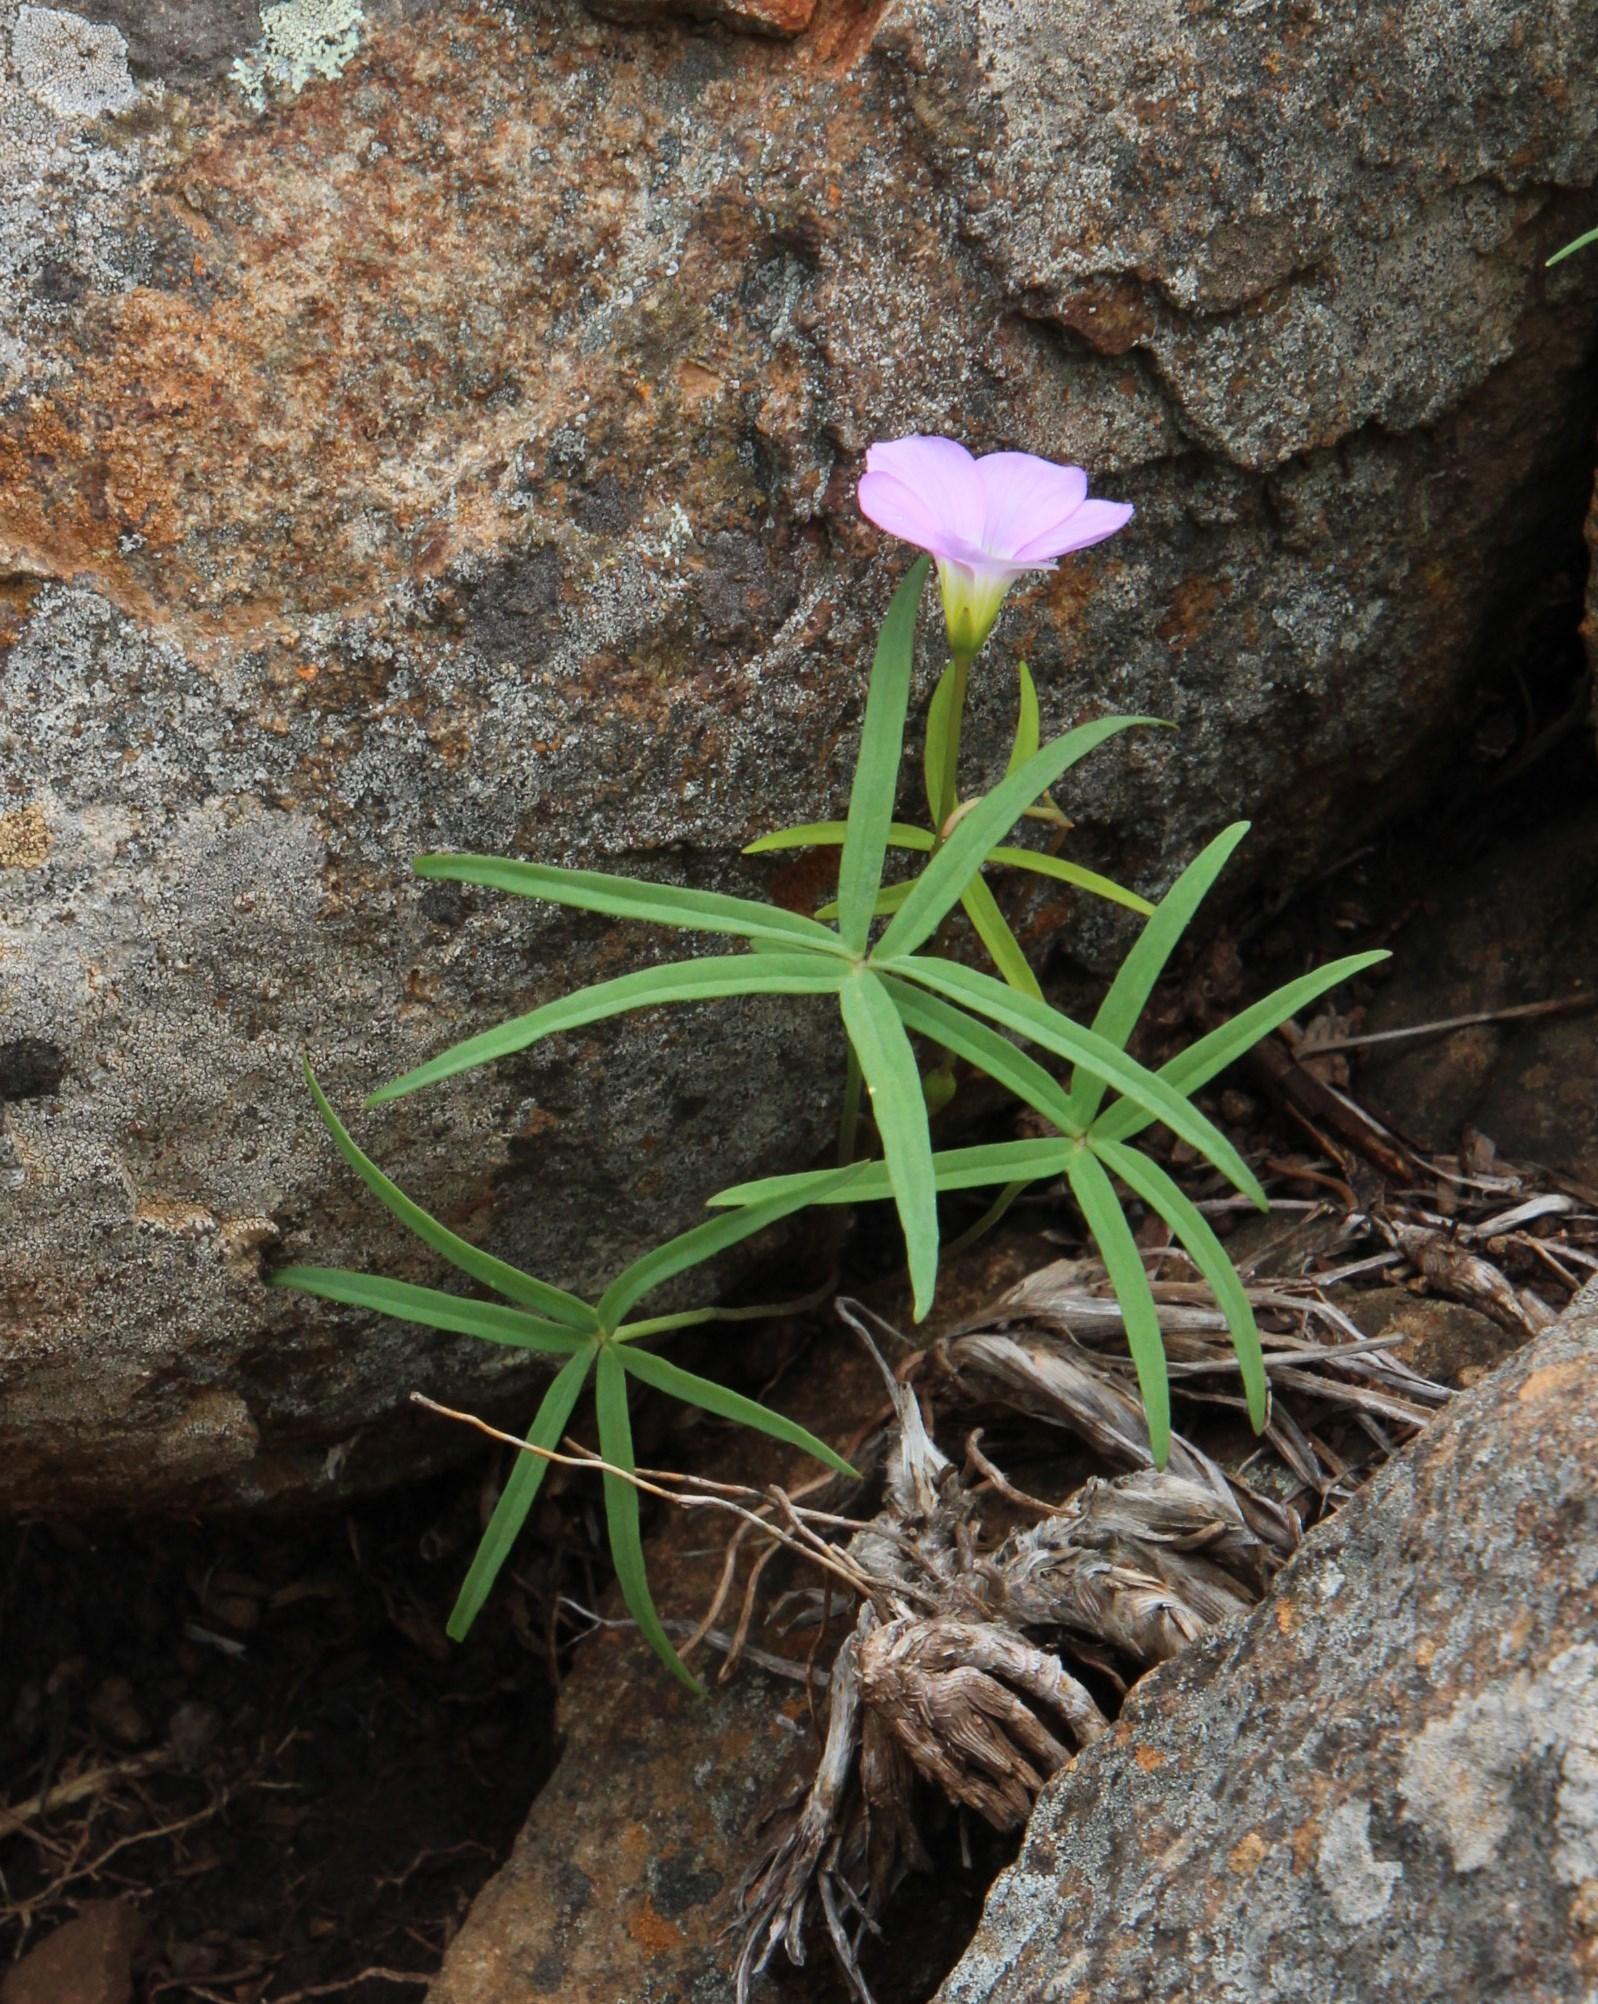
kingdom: Plantae
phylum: Tracheophyta
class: Magnoliopsida
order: Oxalidales
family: Oxalidaceae
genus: Oxalis
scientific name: Oxalis smithiana
